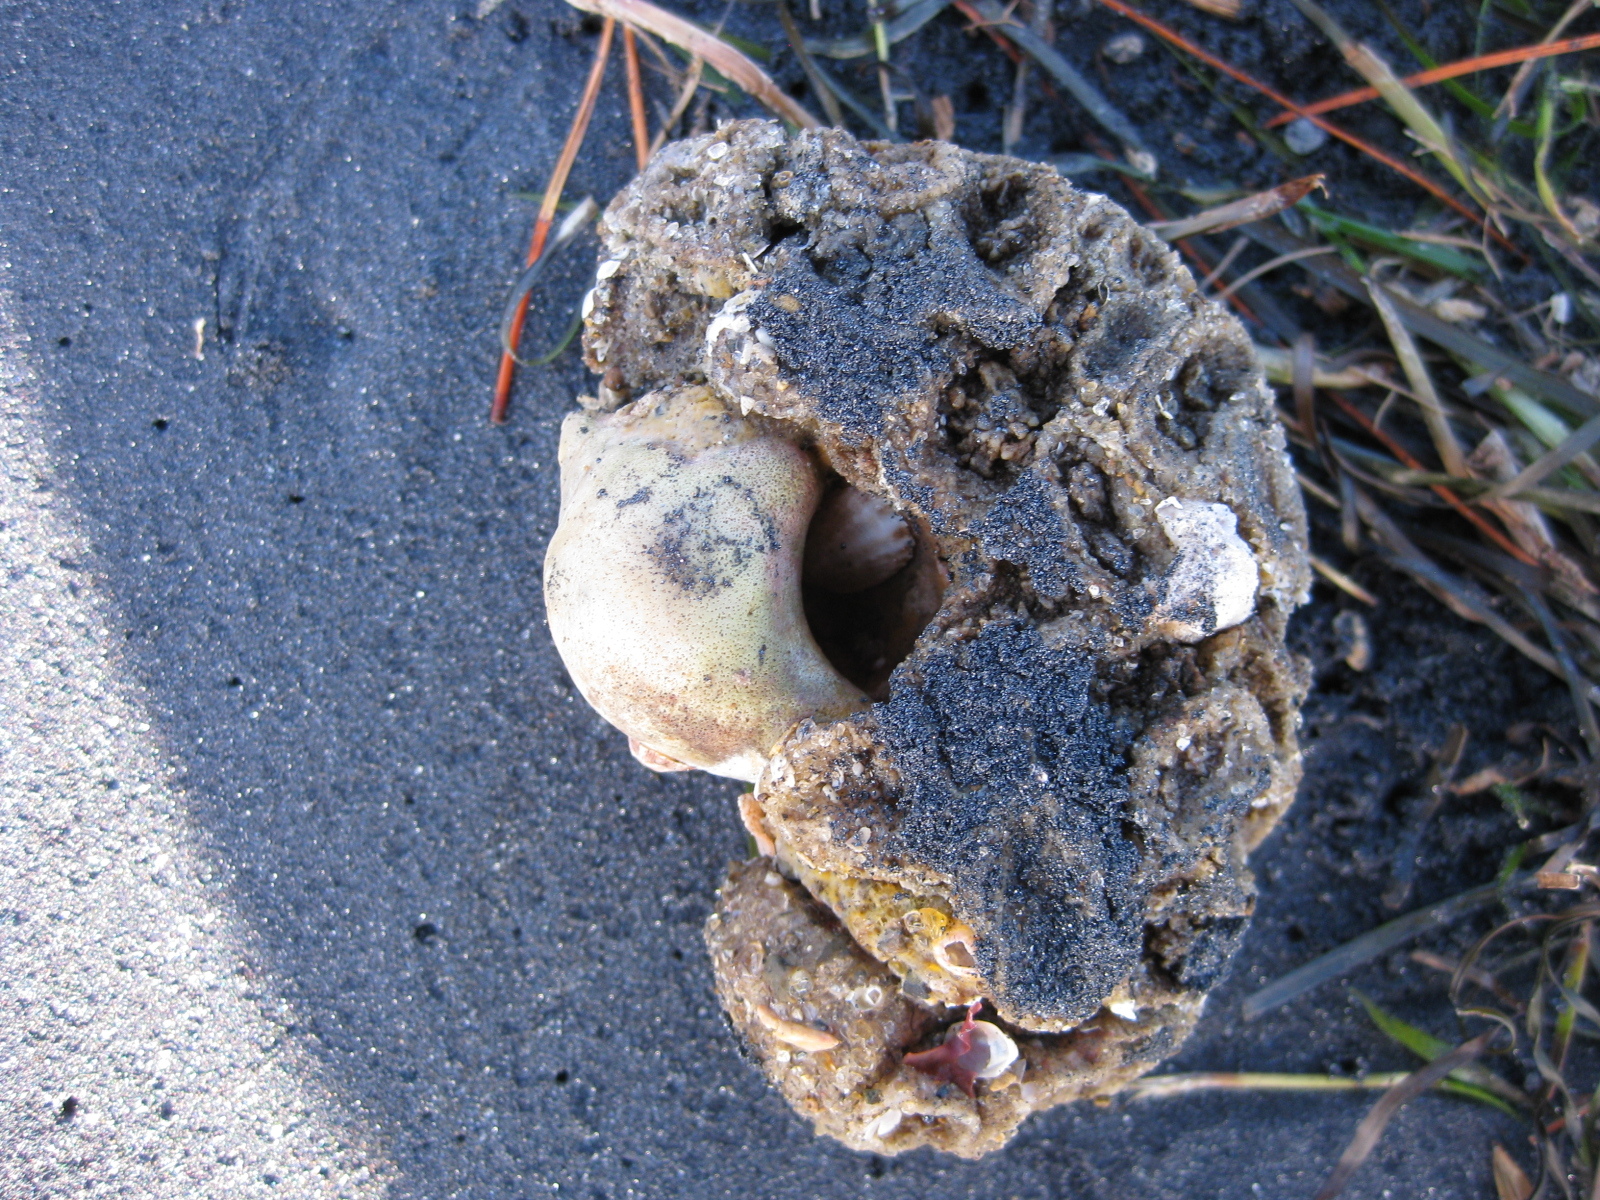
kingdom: Animalia
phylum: Mollusca
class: Gastropoda
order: Neogastropoda
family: Cominellidae
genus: Cominella
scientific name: Cominella adspersa
